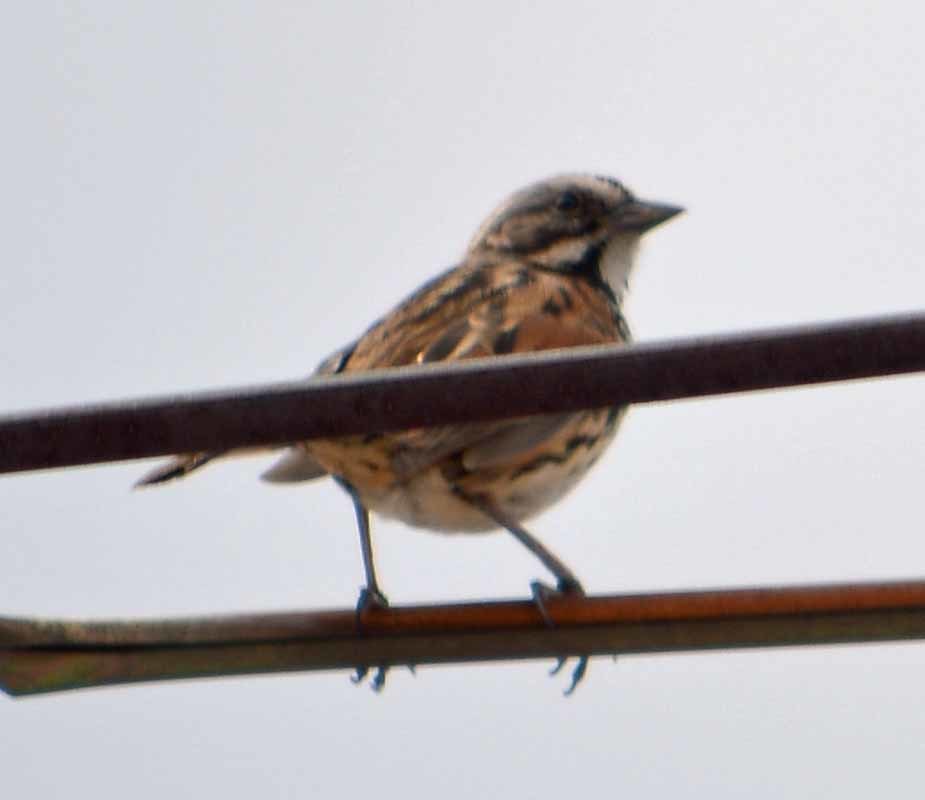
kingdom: Animalia
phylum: Chordata
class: Aves
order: Passeriformes
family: Passerellidae
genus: Melospiza
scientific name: Melospiza melodia
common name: Song sparrow
